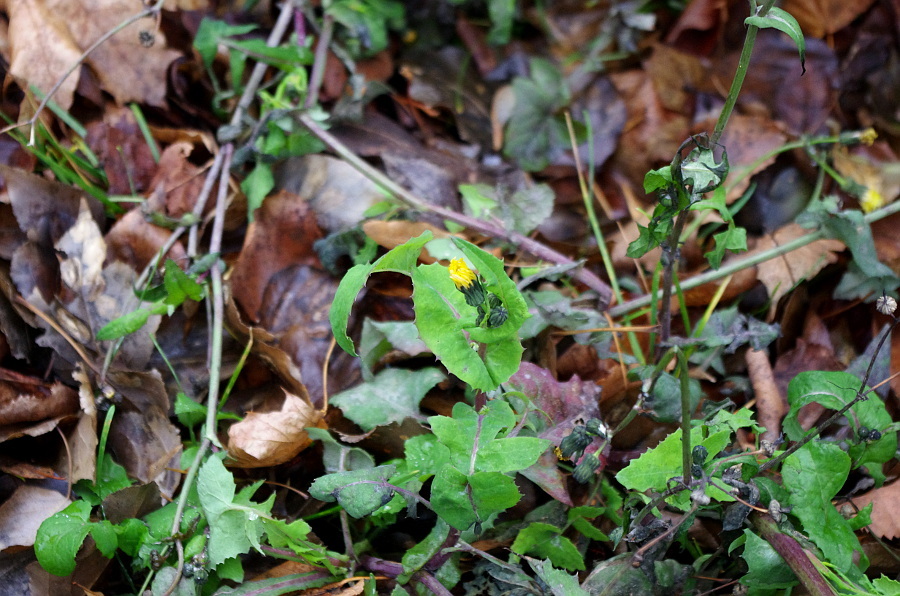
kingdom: Plantae
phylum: Tracheophyta
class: Magnoliopsida
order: Asterales
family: Asteraceae
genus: Sonchus
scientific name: Sonchus oleraceus
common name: Common sowthistle
